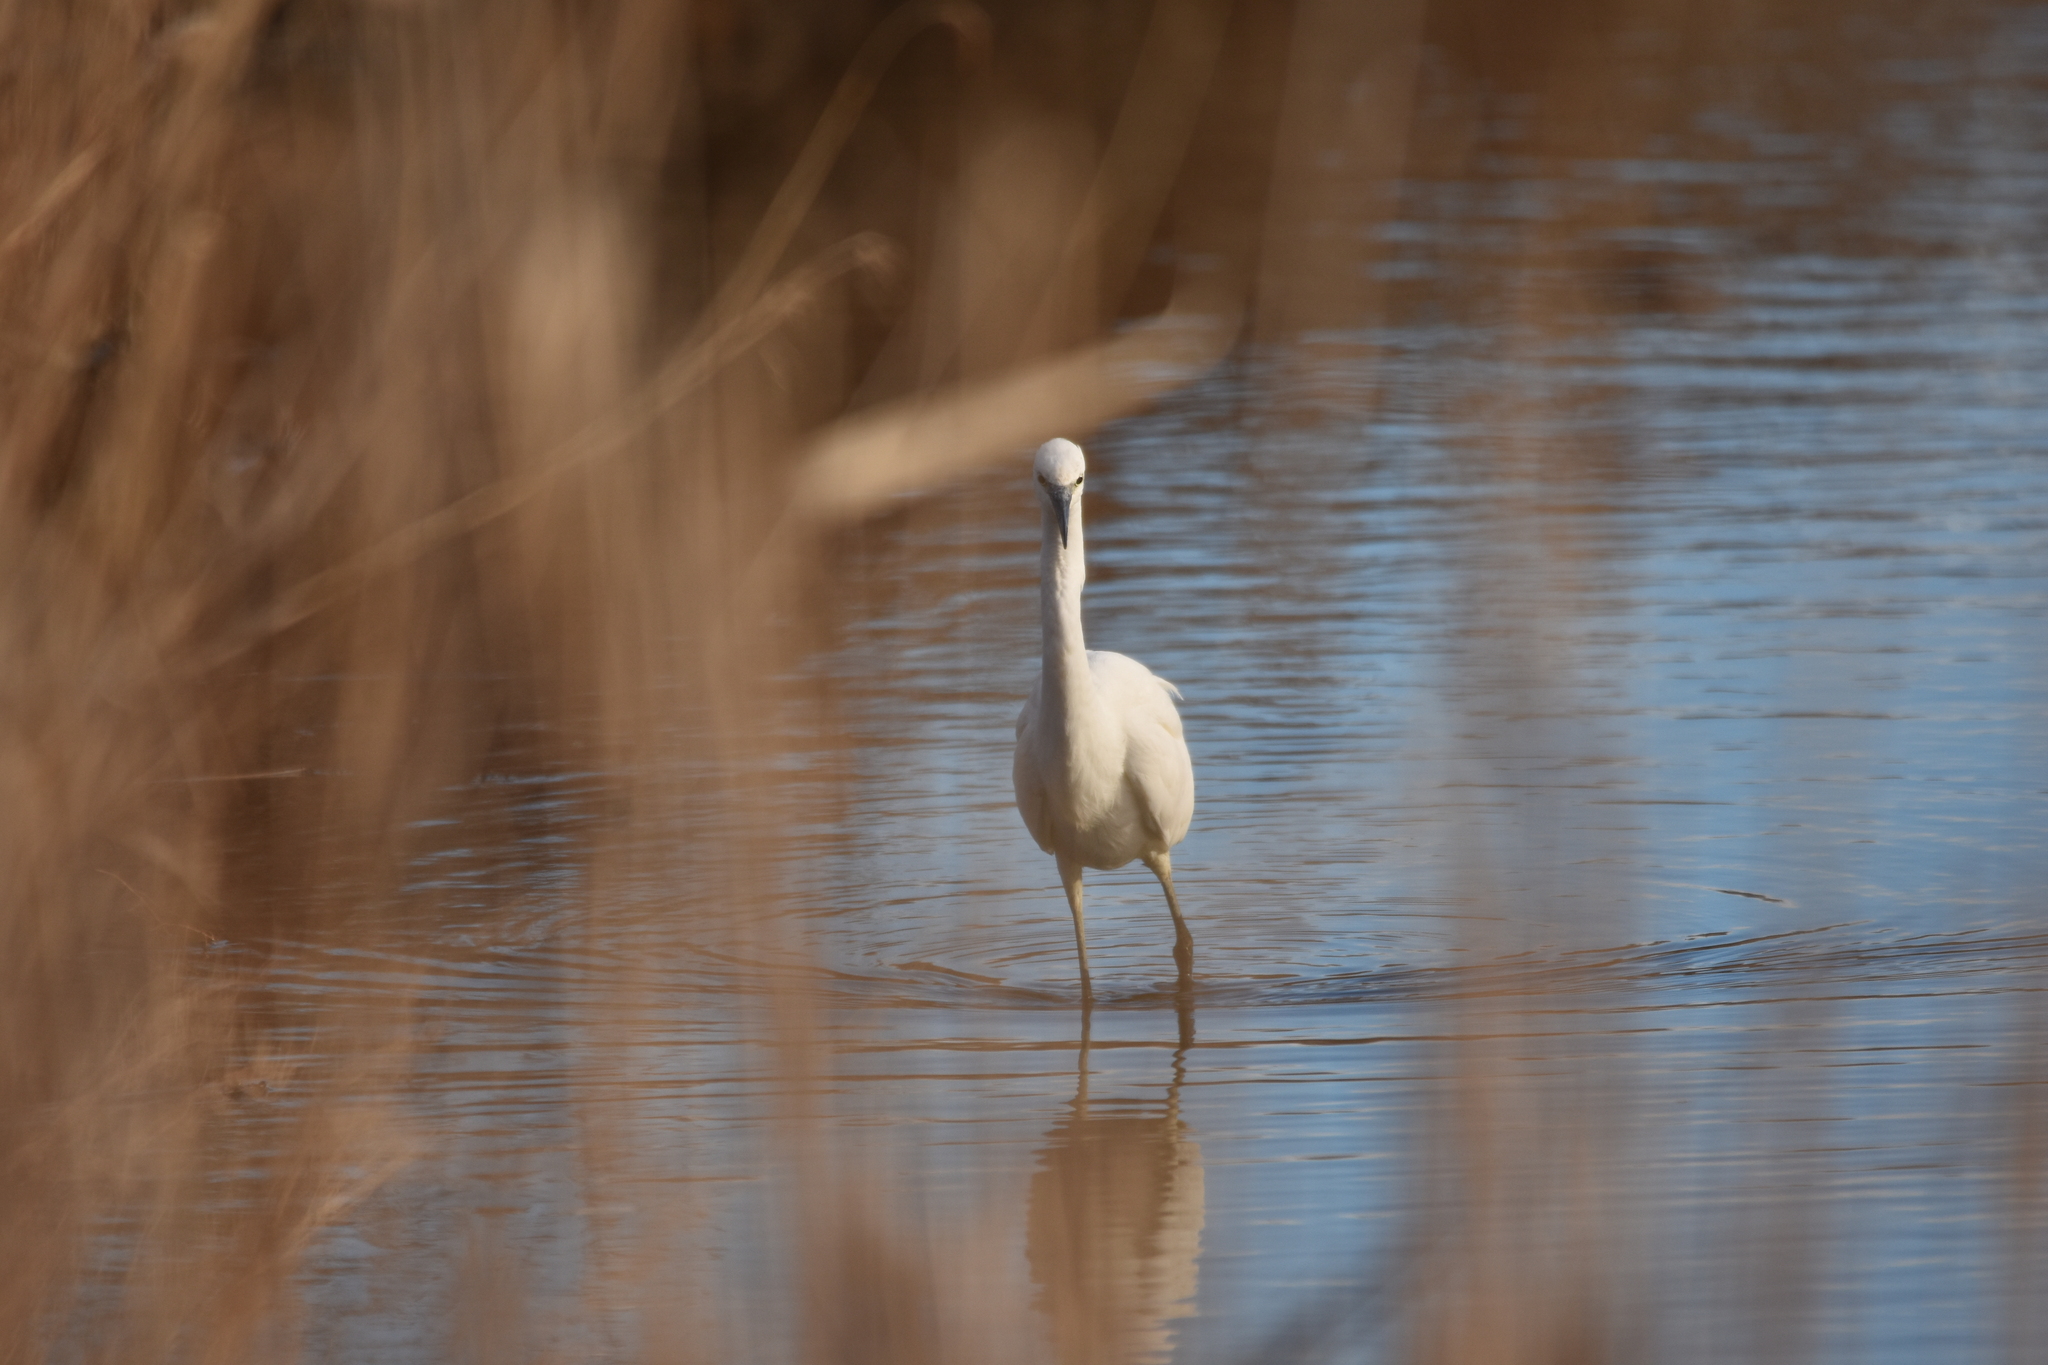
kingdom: Animalia
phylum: Chordata
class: Aves
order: Pelecaniformes
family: Ardeidae
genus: Egretta
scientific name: Egretta garzetta
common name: Little egret
